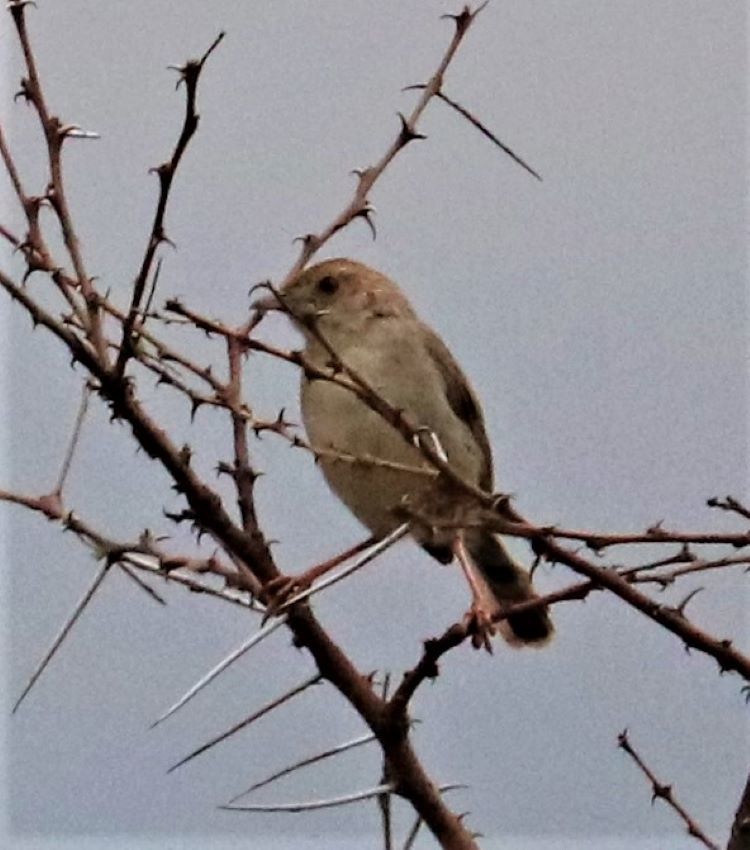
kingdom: Animalia
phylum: Chordata
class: Aves
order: Passeriformes
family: Cisticolidae
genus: Cisticola
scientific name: Cisticola chiniana
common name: Rattling cisticola
